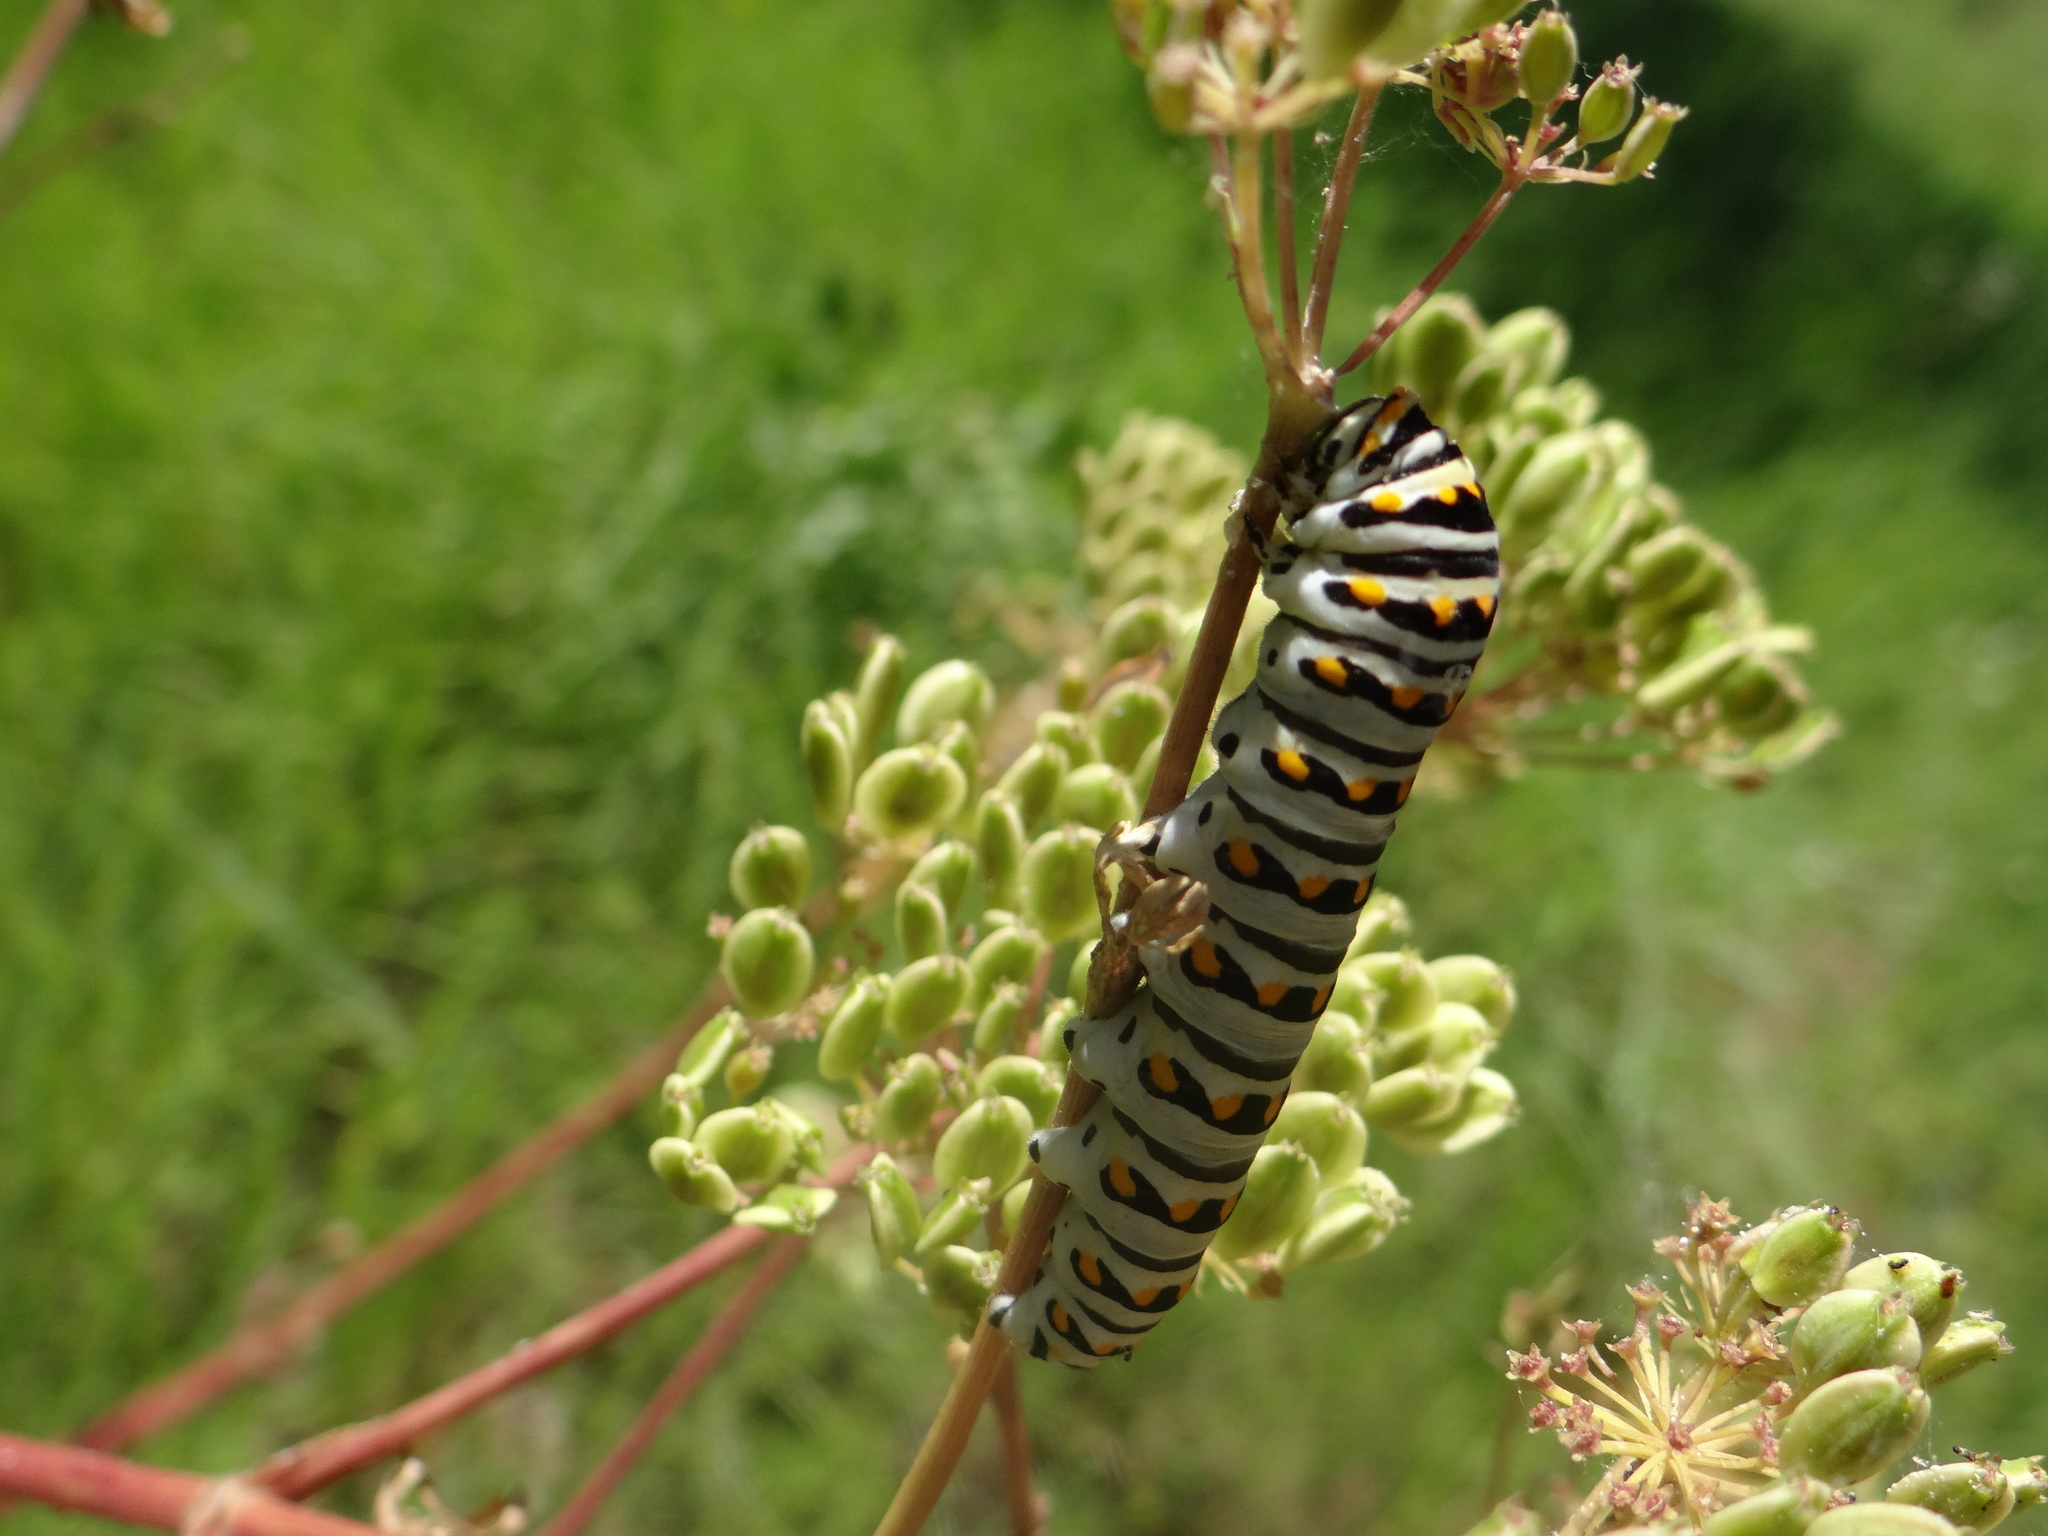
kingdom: Animalia
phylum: Arthropoda
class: Insecta
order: Lepidoptera
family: Papilionidae
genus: Papilio
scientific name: Papilio polyxenes
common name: Black swallowtail
